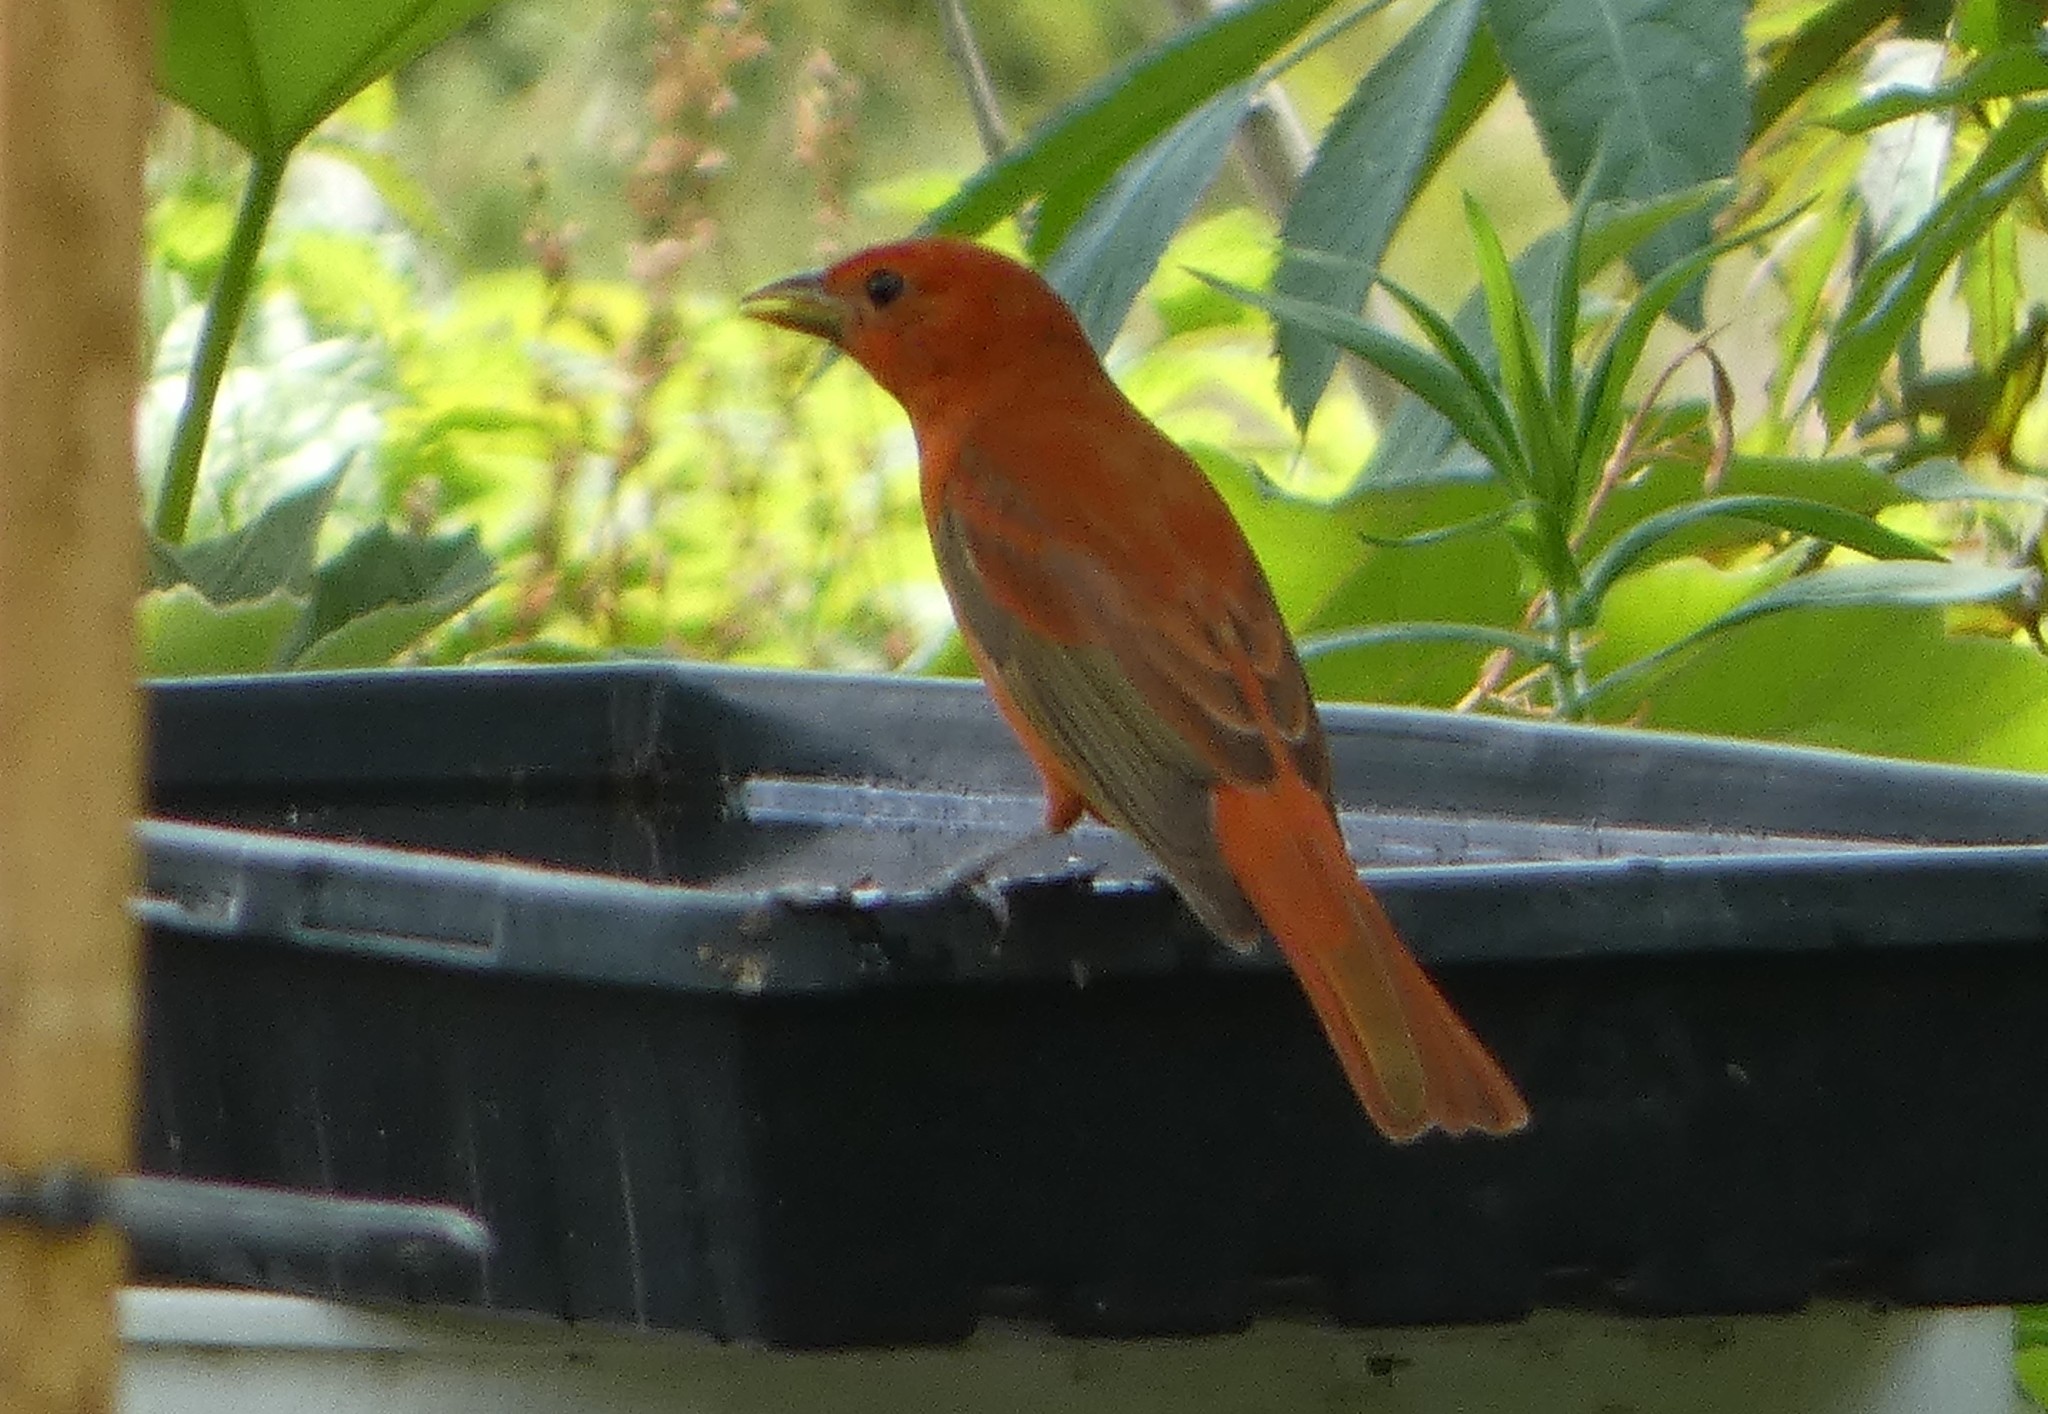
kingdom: Animalia
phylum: Chordata
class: Aves
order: Passeriformes
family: Cardinalidae
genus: Piranga
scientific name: Piranga rubra
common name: Summer tanager
